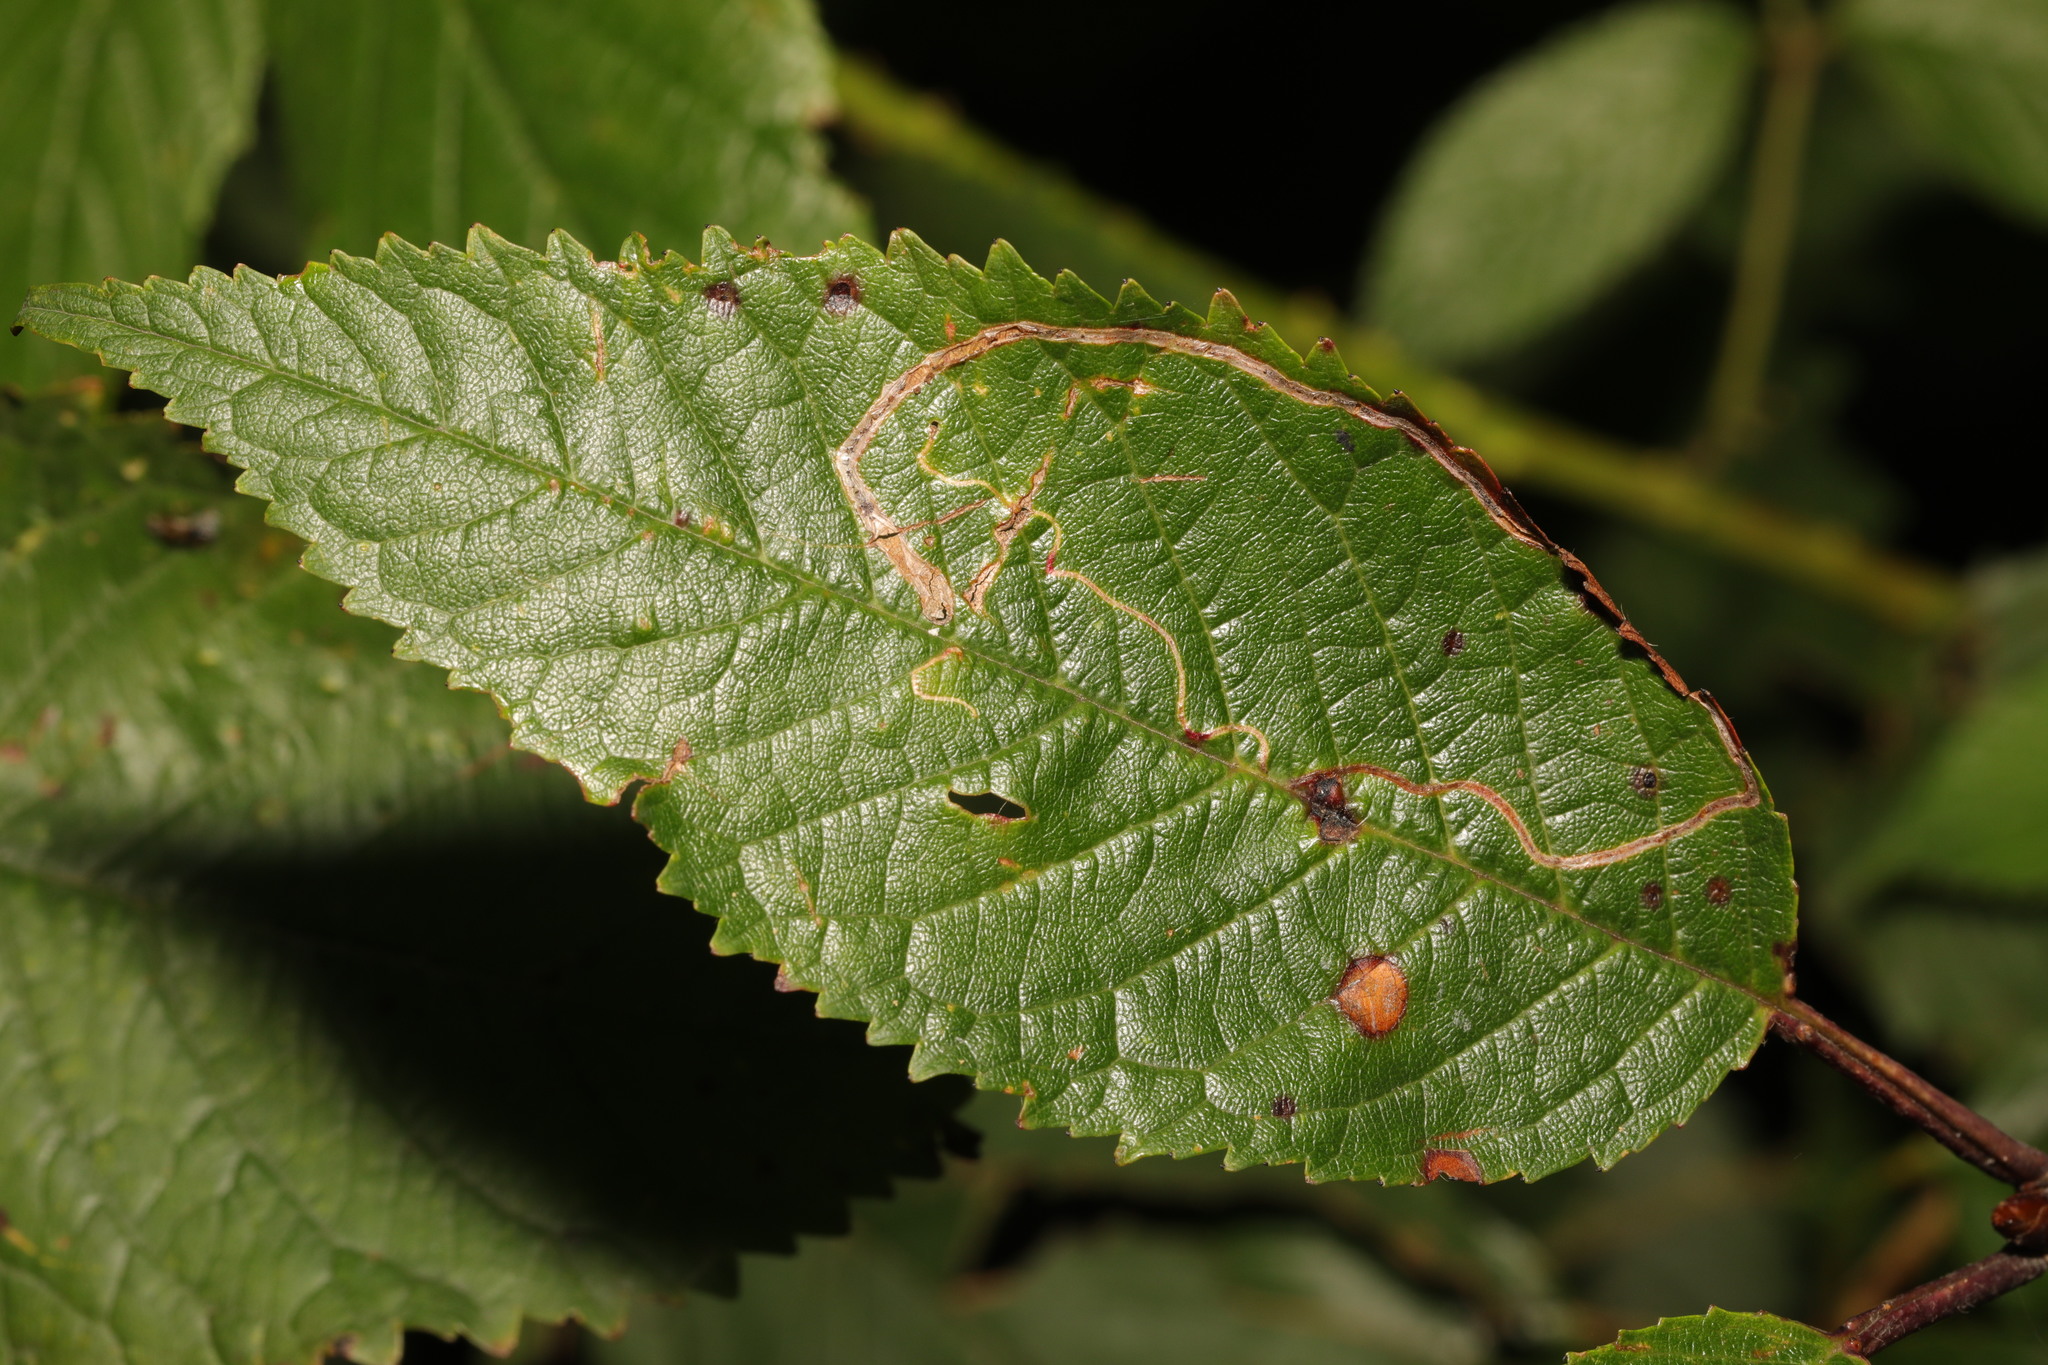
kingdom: Animalia
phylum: Arthropoda
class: Insecta
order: Lepidoptera
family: Lyonetiidae
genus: Lyonetia
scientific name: Lyonetia clerkella
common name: Apple leaf miner
